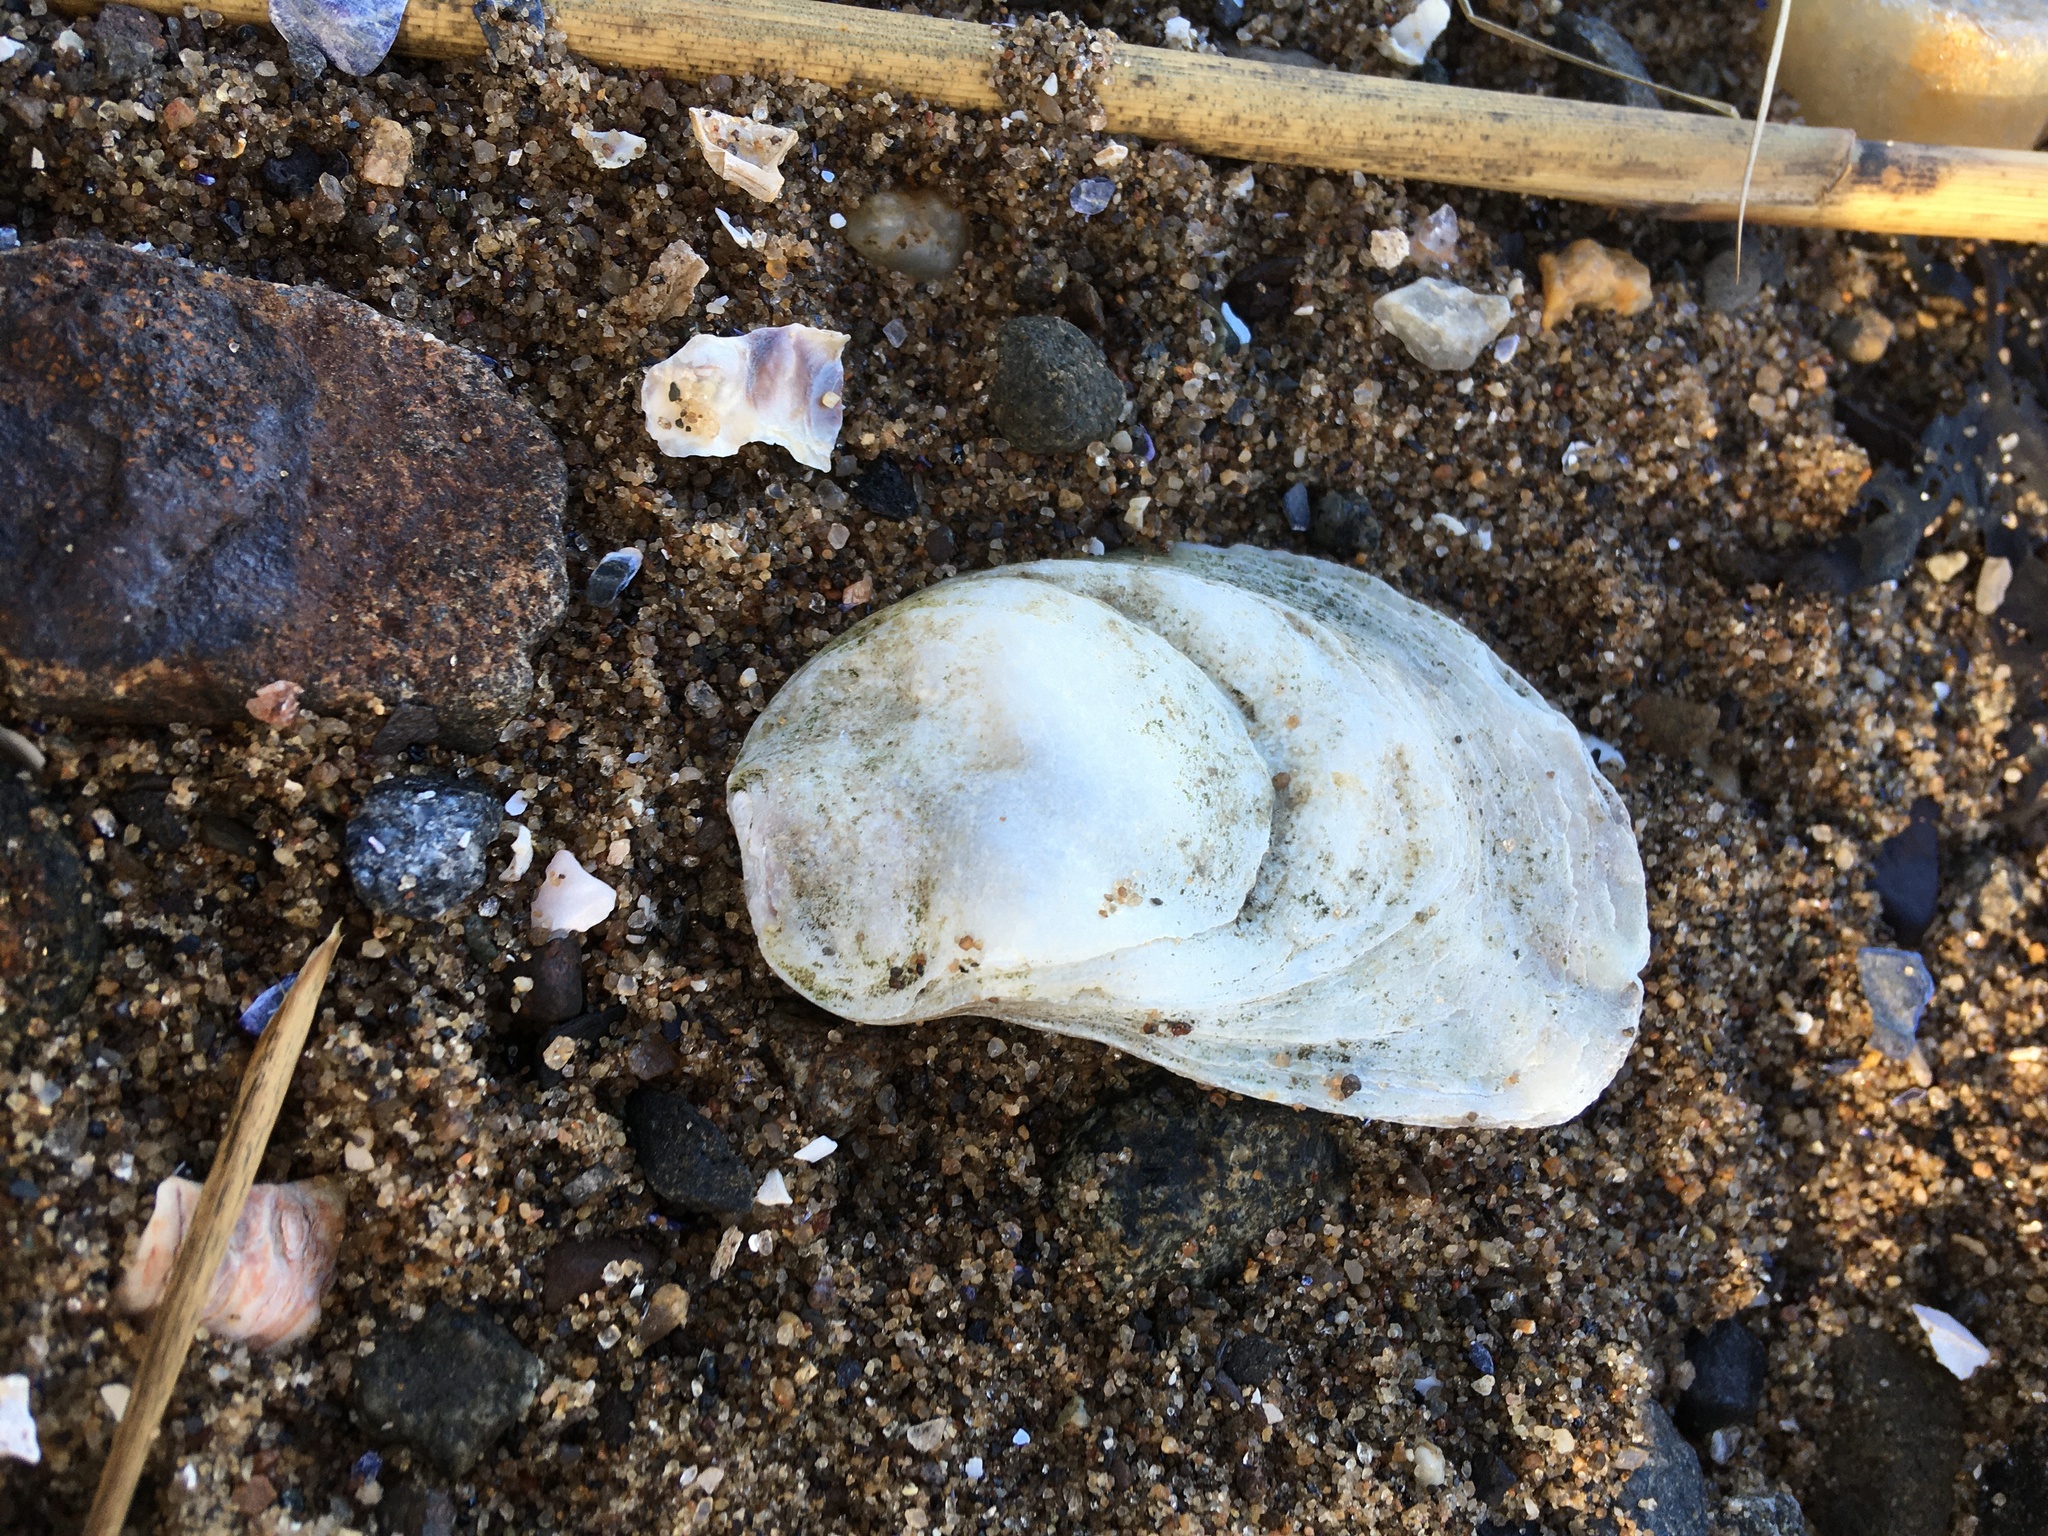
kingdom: Animalia
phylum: Mollusca
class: Bivalvia
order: Ostreida
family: Ostreidae
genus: Crassostrea
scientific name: Crassostrea virginica
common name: American oyster
